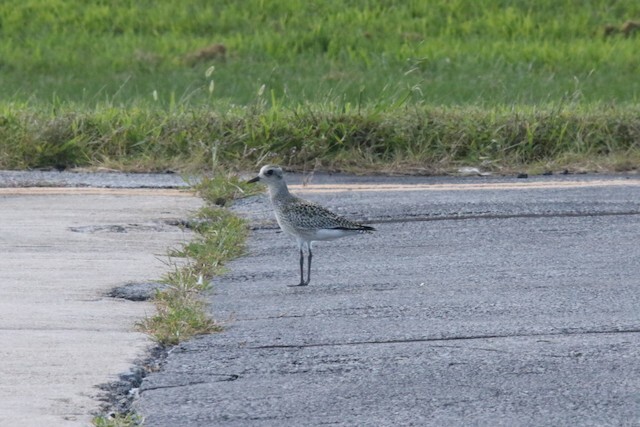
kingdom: Animalia
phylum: Chordata
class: Aves
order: Charadriiformes
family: Charadriidae
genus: Pluvialis
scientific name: Pluvialis dominica
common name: American golden plover
